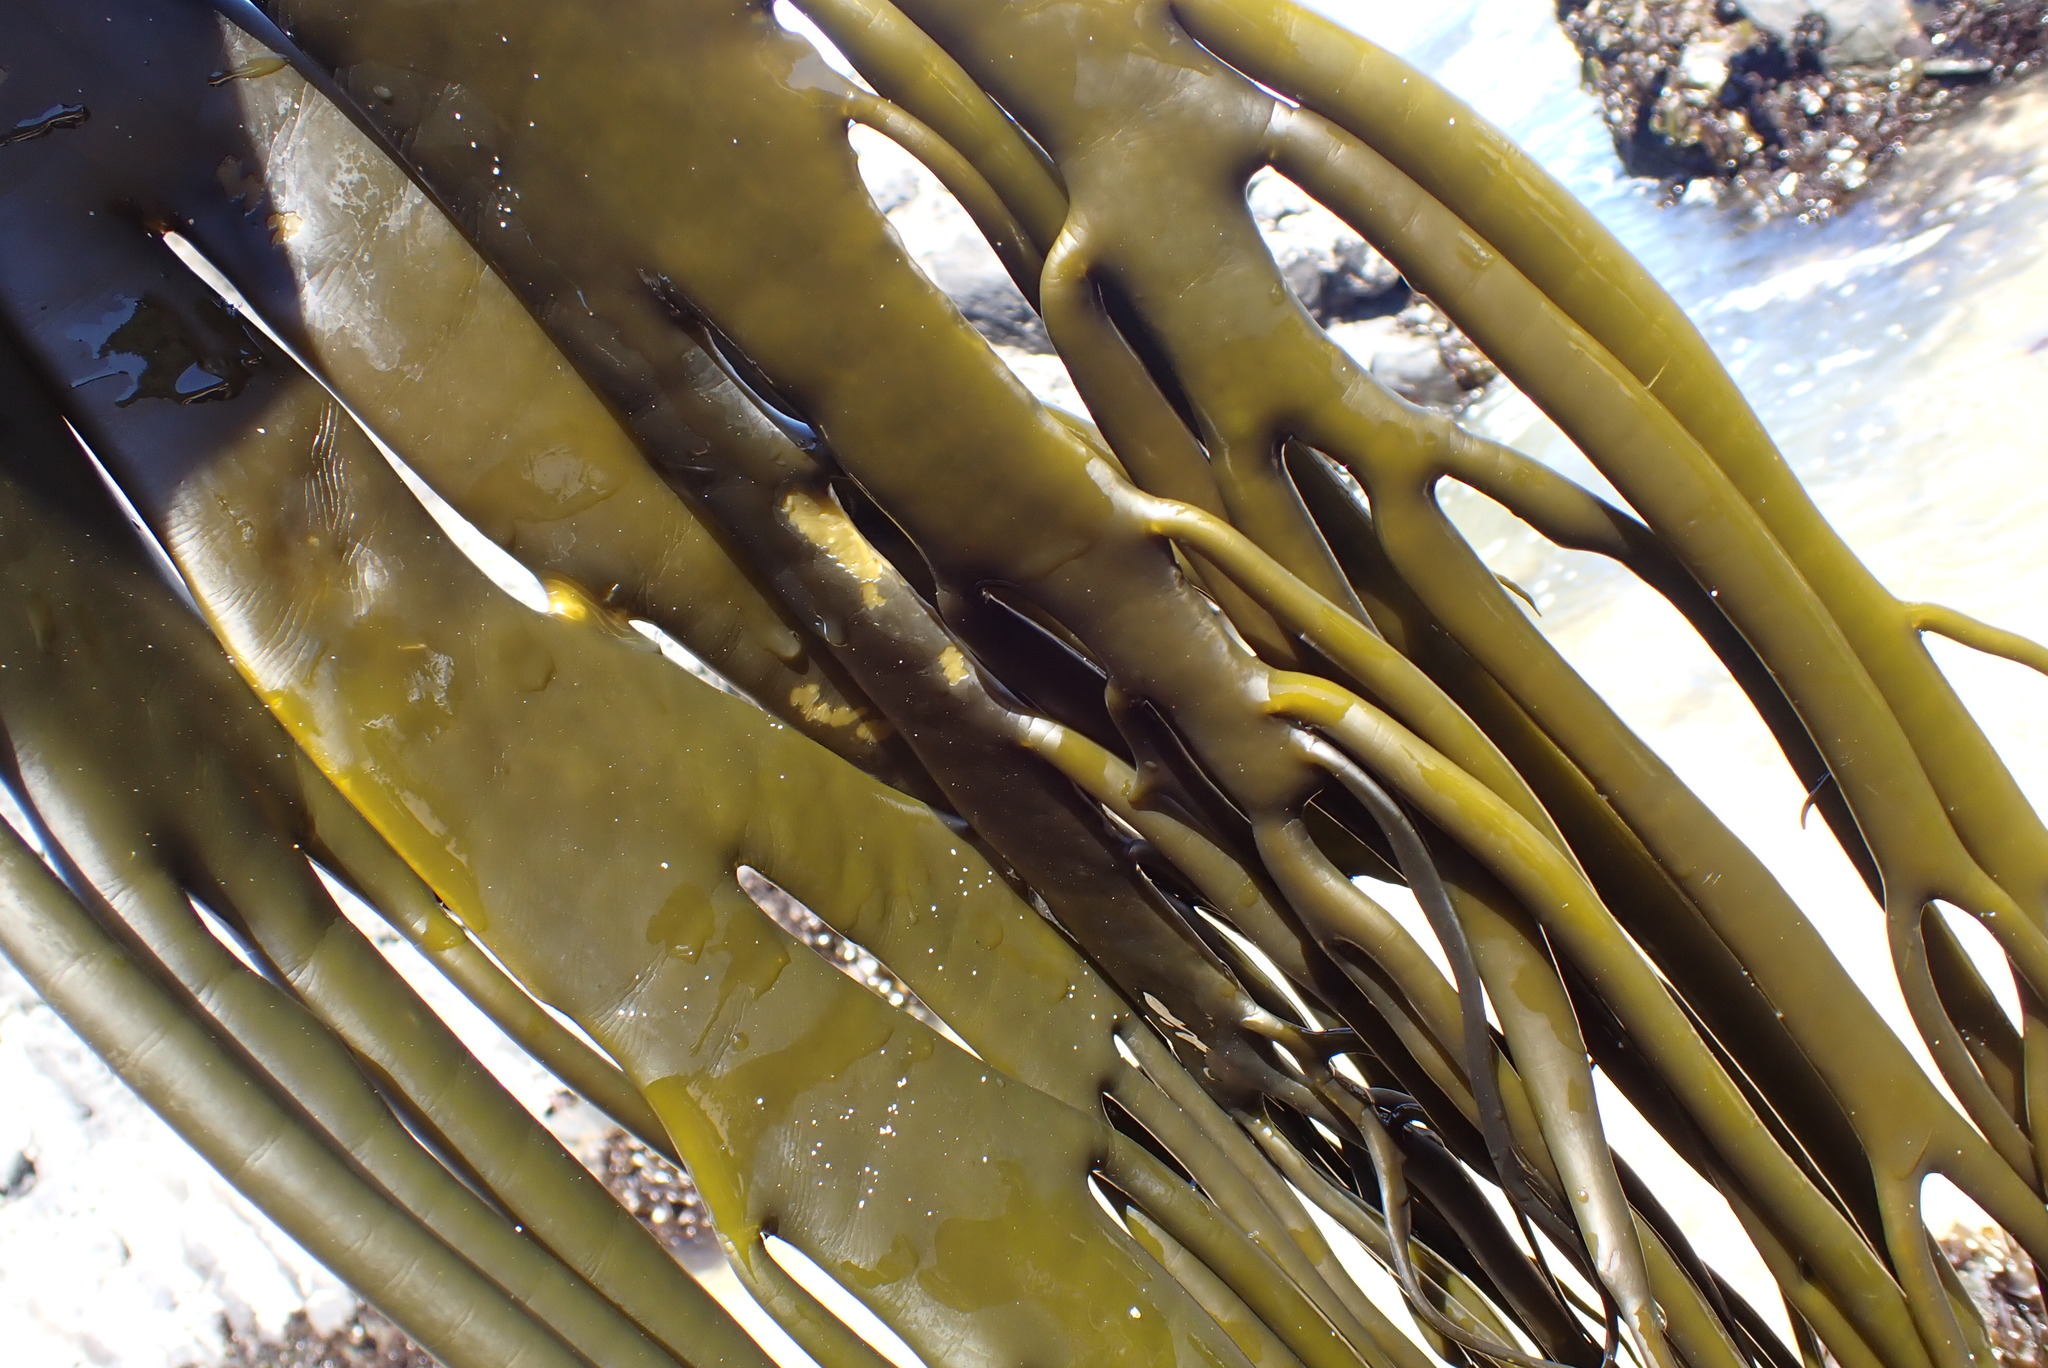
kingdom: Chromista
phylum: Ochrophyta
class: Phaeophyceae
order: Fucales
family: Durvillaeaceae
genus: Durvillaea
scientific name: Durvillaea
